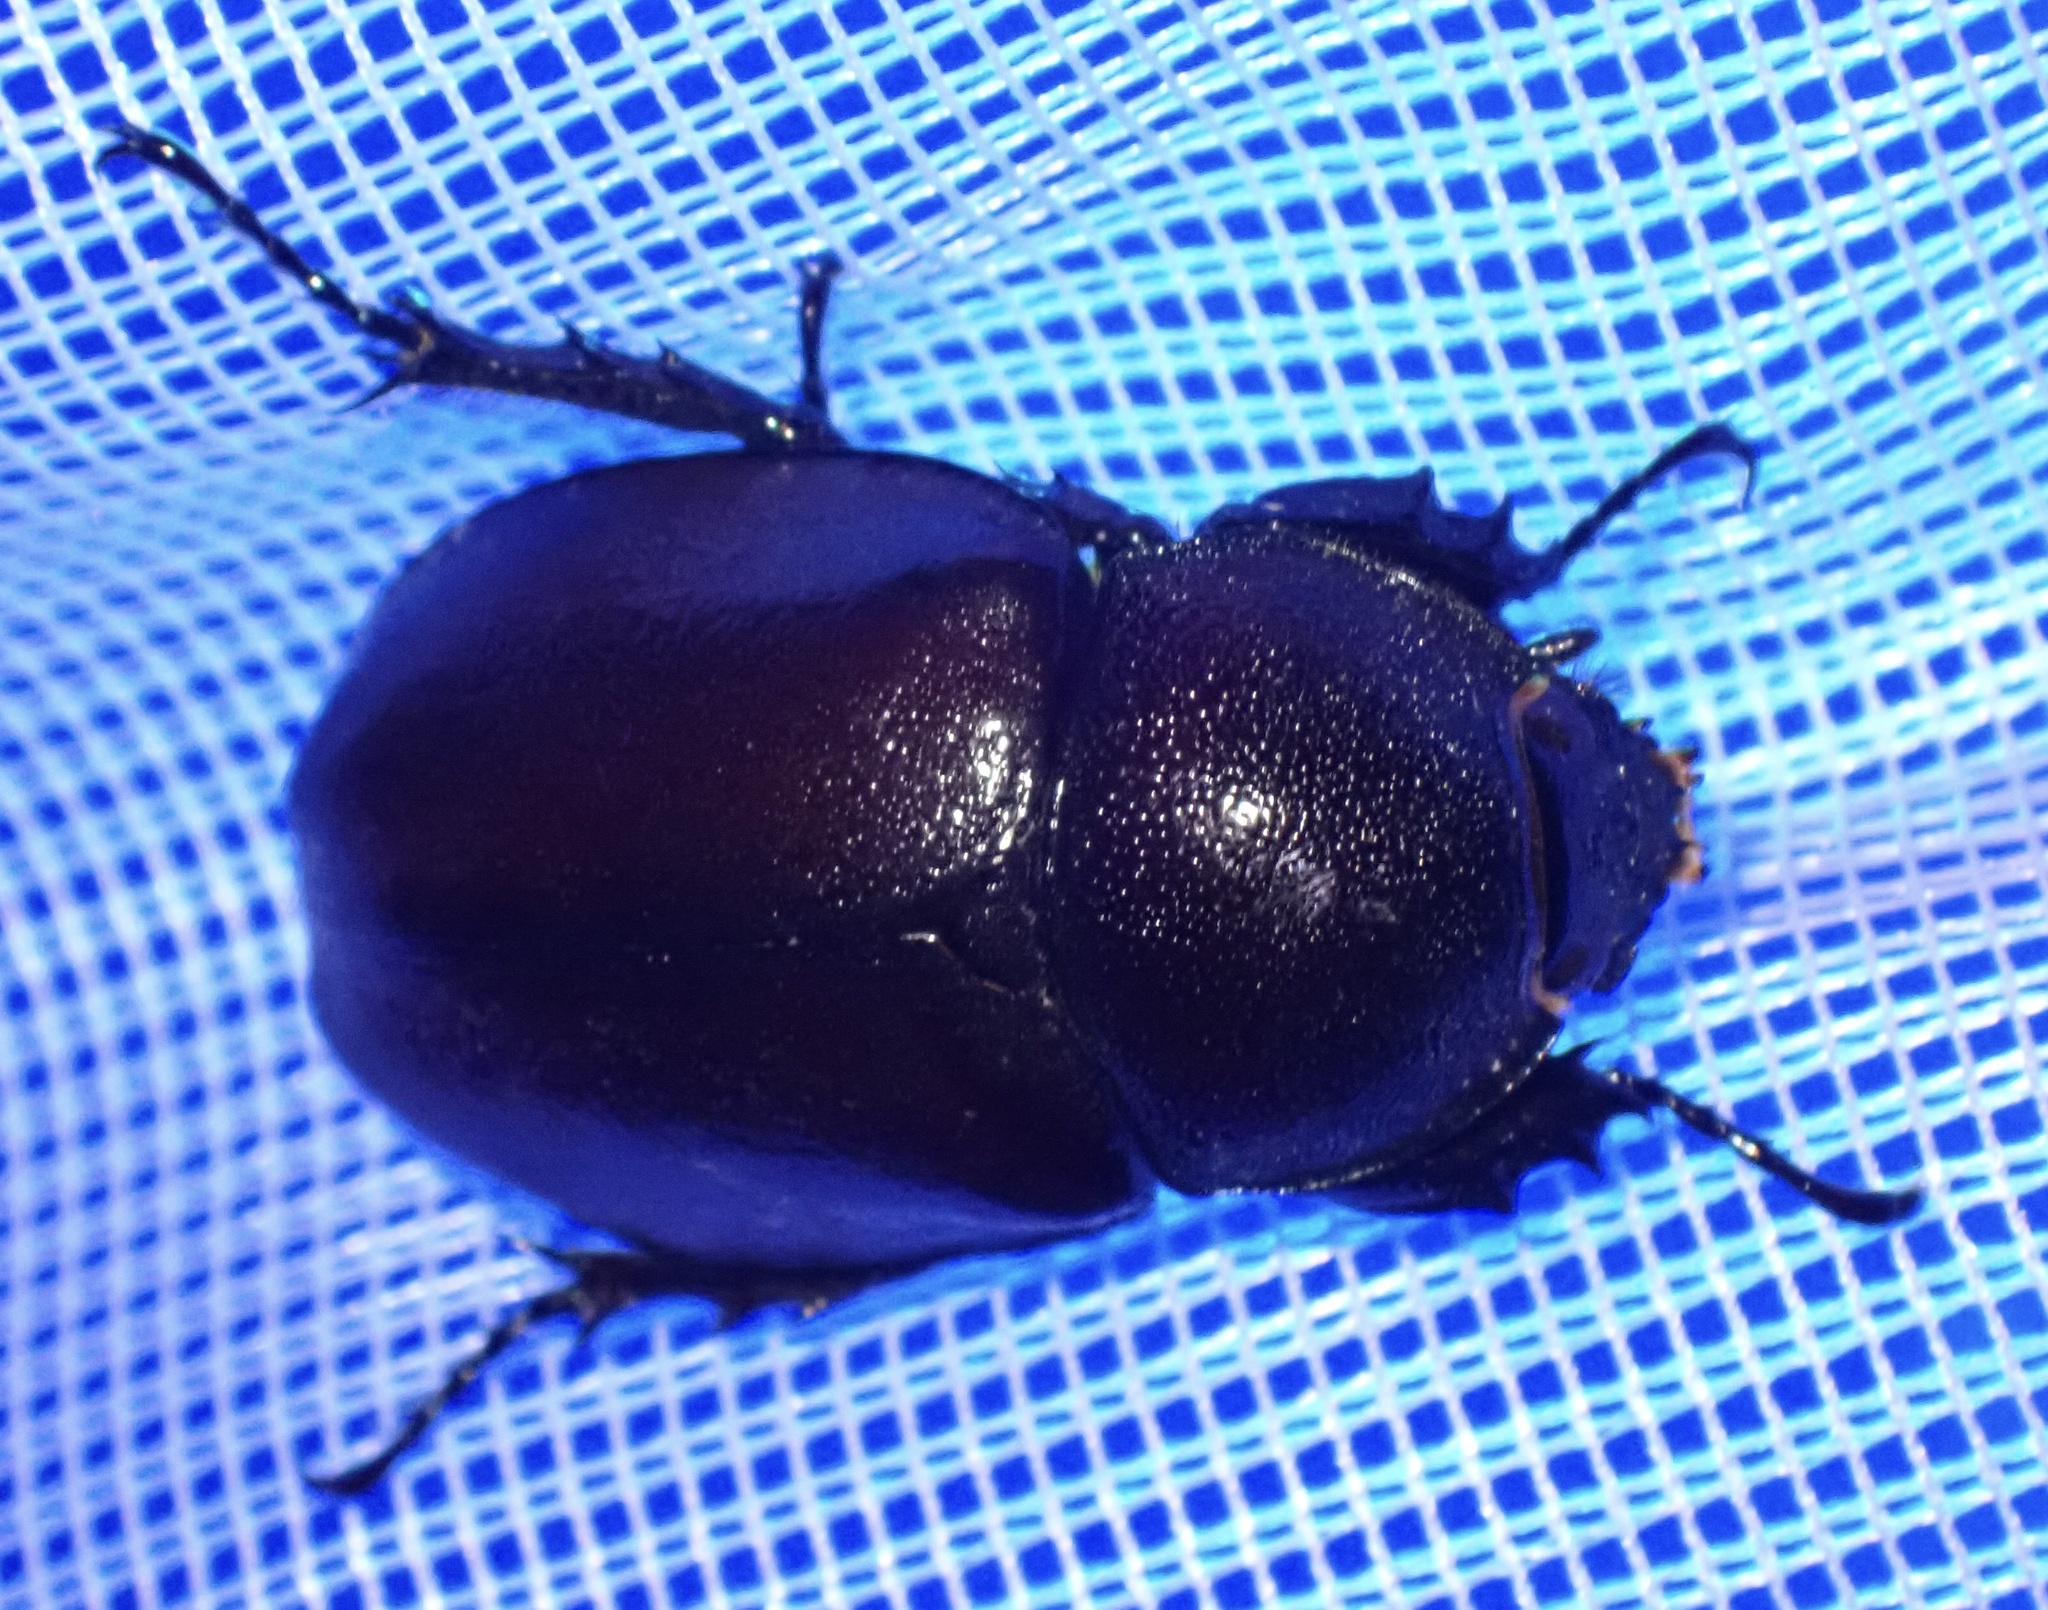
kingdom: Animalia
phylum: Arthropoda
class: Insecta
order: Coleoptera
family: Scarabaeidae
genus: Xylotrupes
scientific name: Xylotrupes carinulus
